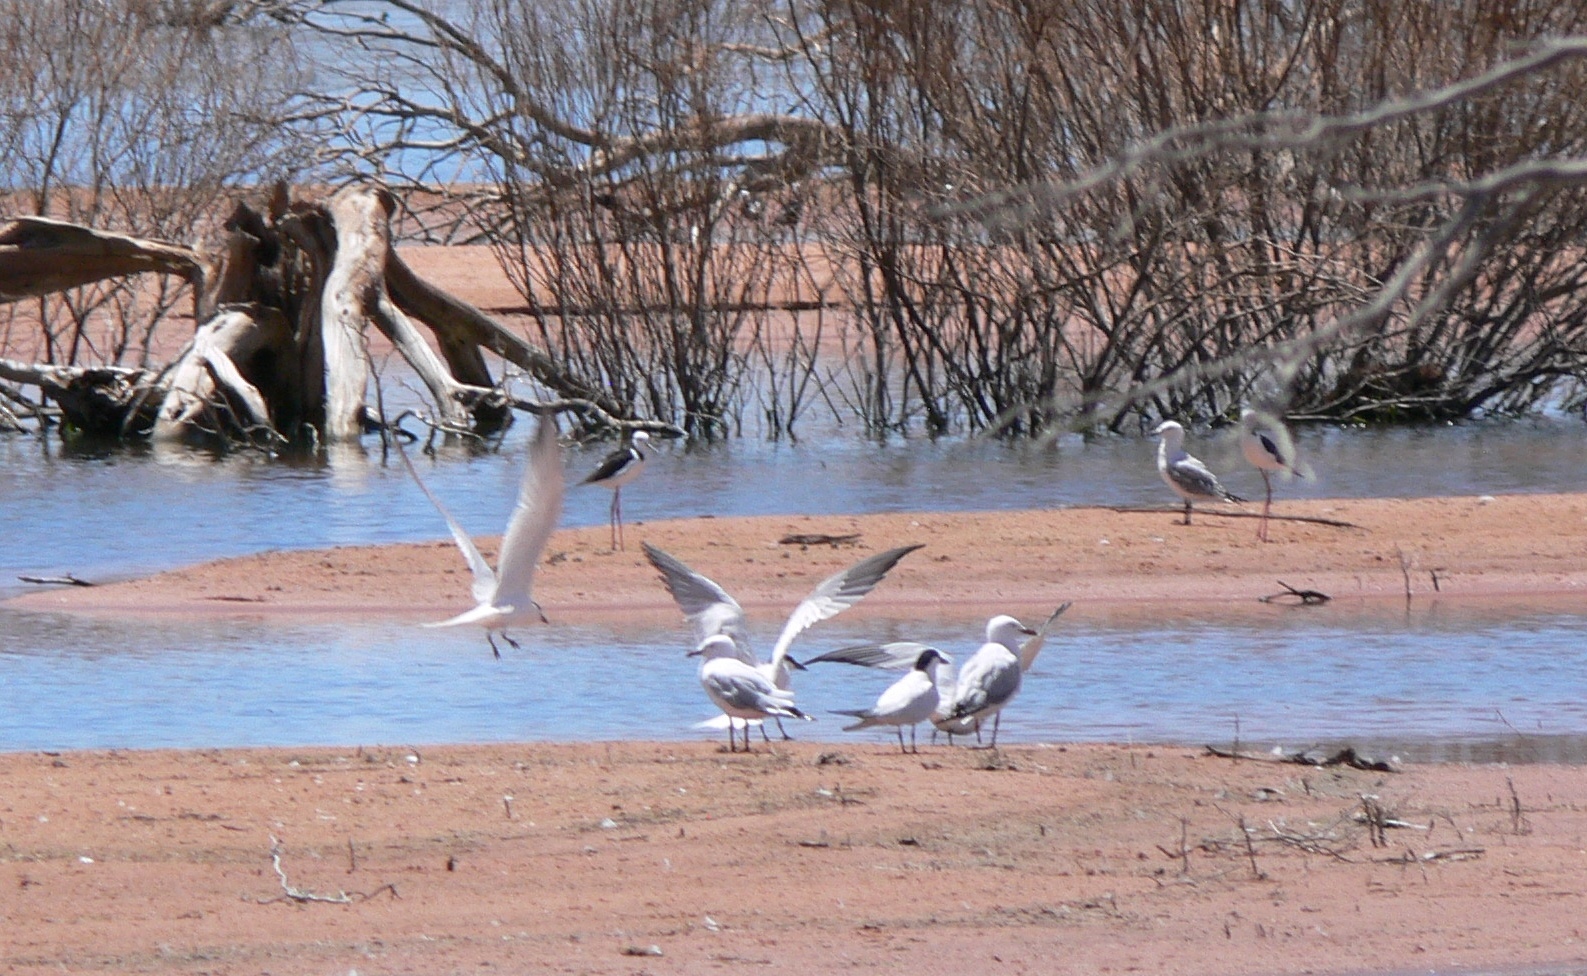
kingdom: Animalia
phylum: Chordata
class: Aves
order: Charadriiformes
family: Laridae
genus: Chroicocephalus
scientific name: Chroicocephalus novaehollandiae
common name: Silver gull
